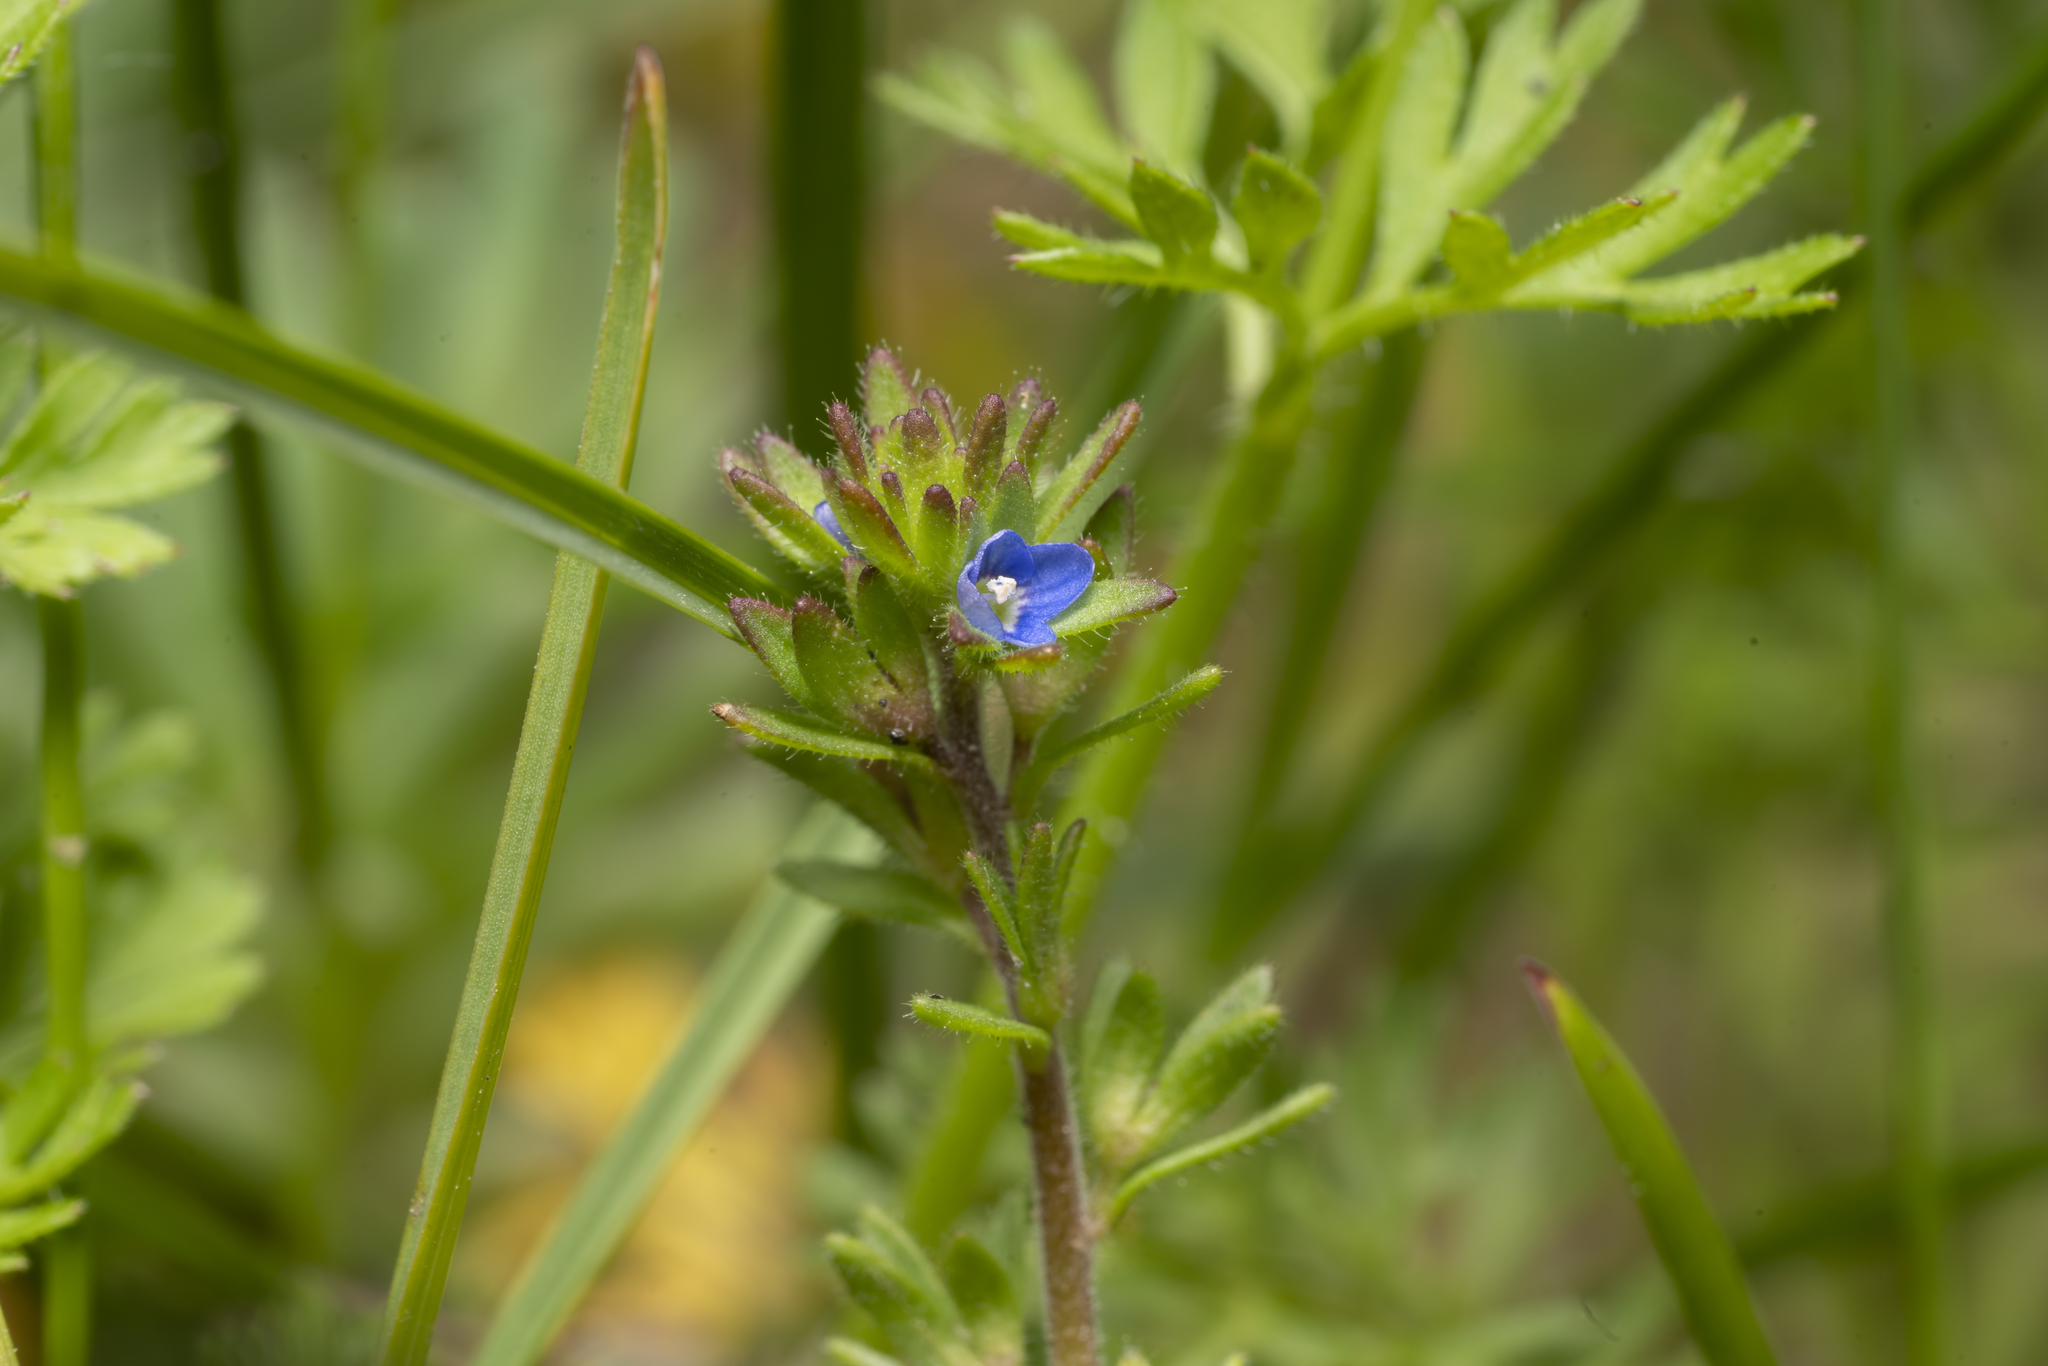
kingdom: Plantae
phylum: Tracheophyta
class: Magnoliopsida
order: Lamiales
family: Plantaginaceae
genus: Veronica
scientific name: Veronica arvensis
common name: Corn speedwell
